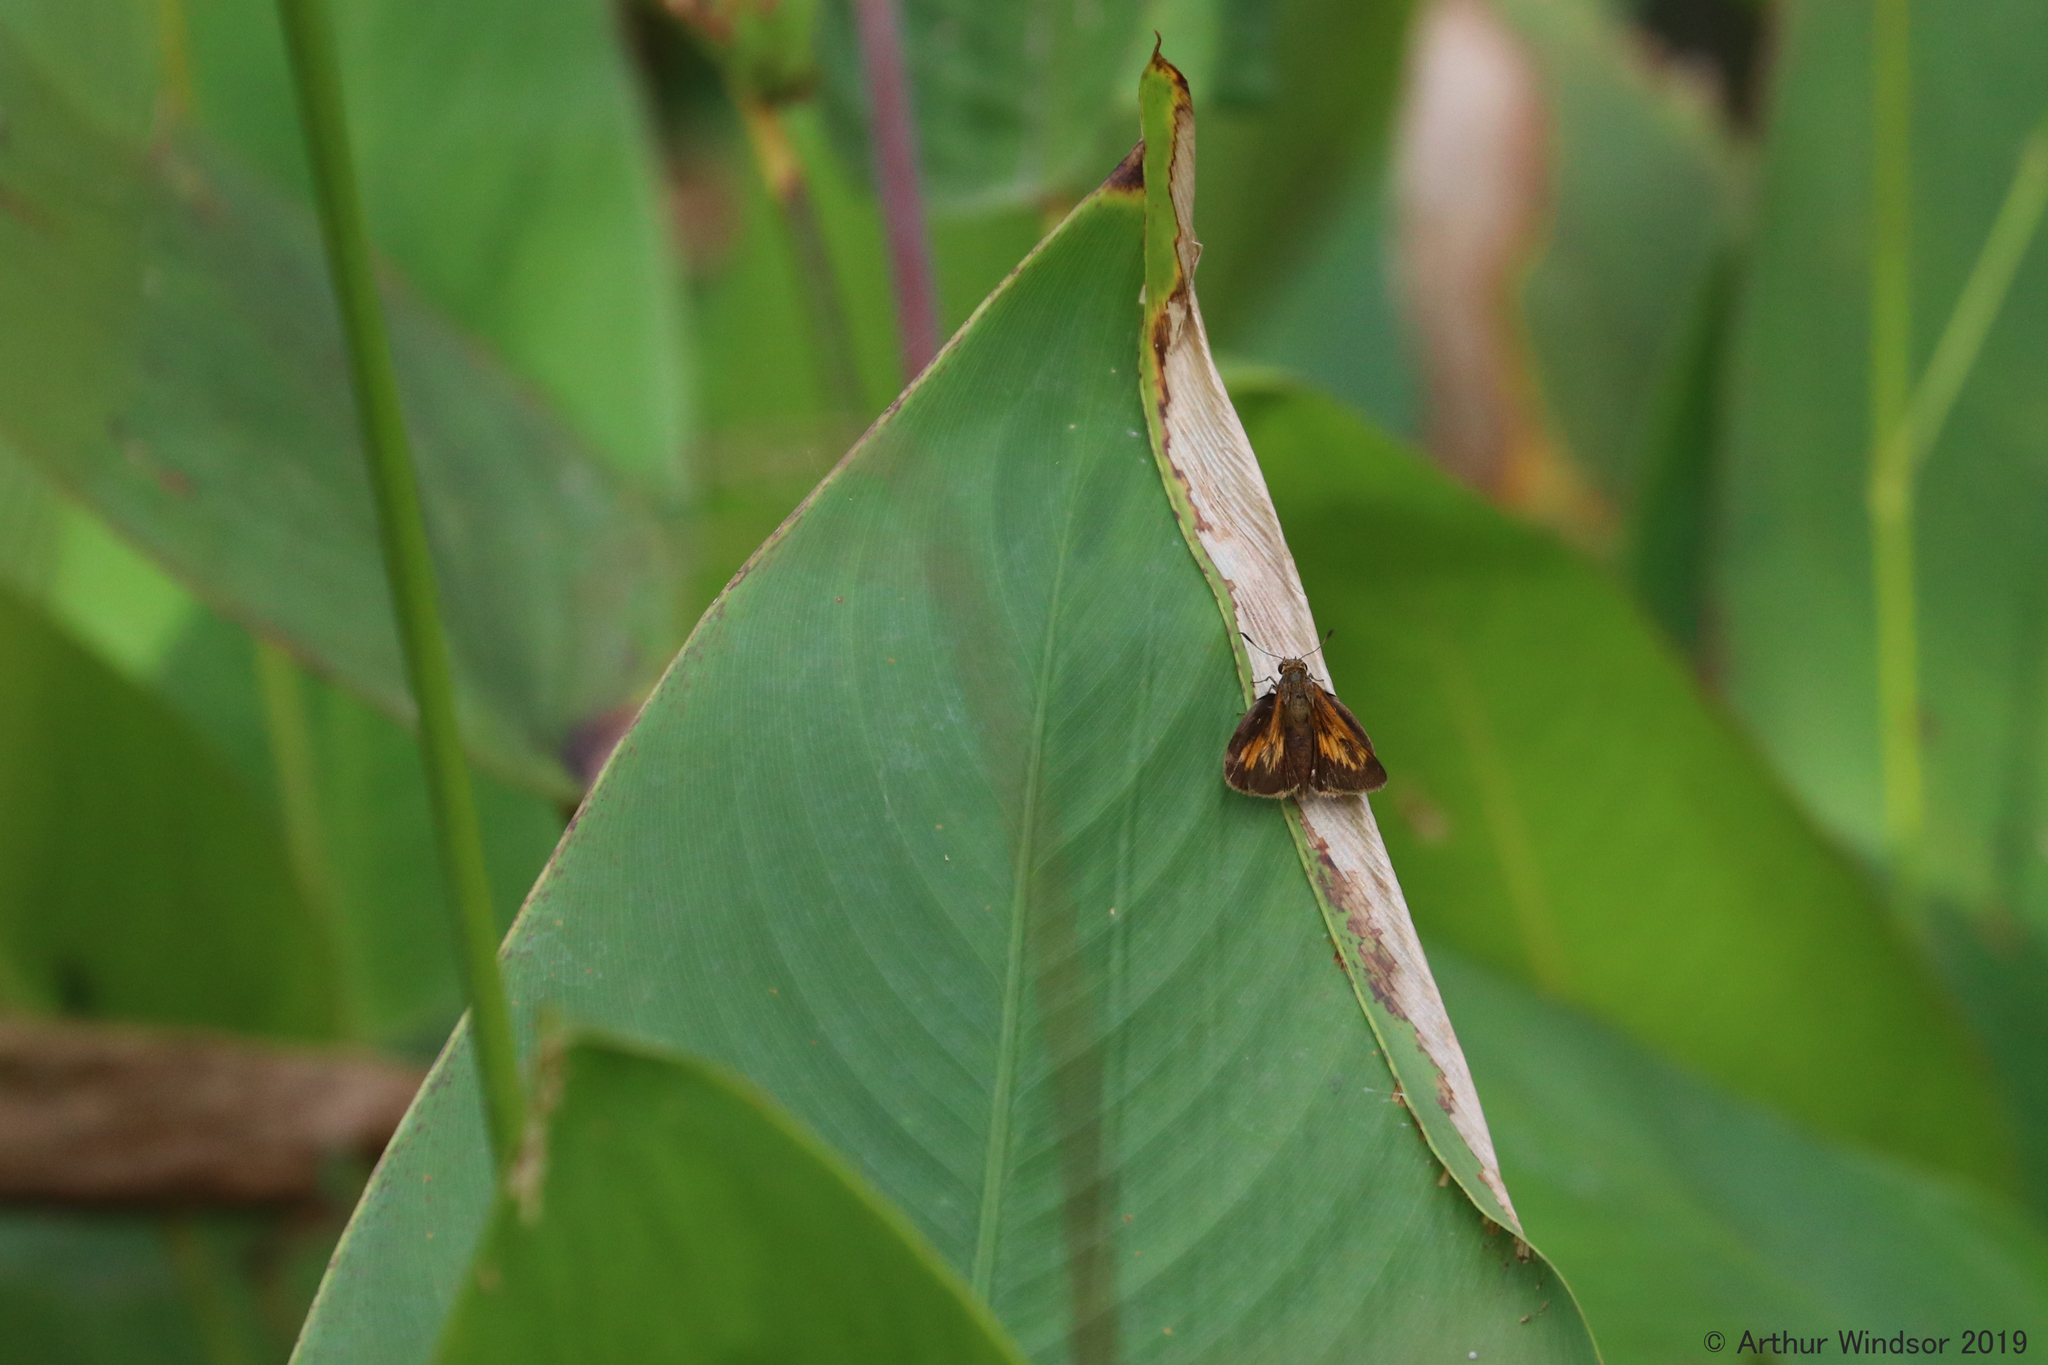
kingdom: Animalia
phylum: Arthropoda
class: Insecta
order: Lepidoptera
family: Hesperiidae
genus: Atrytone
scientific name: Atrytone delaware
